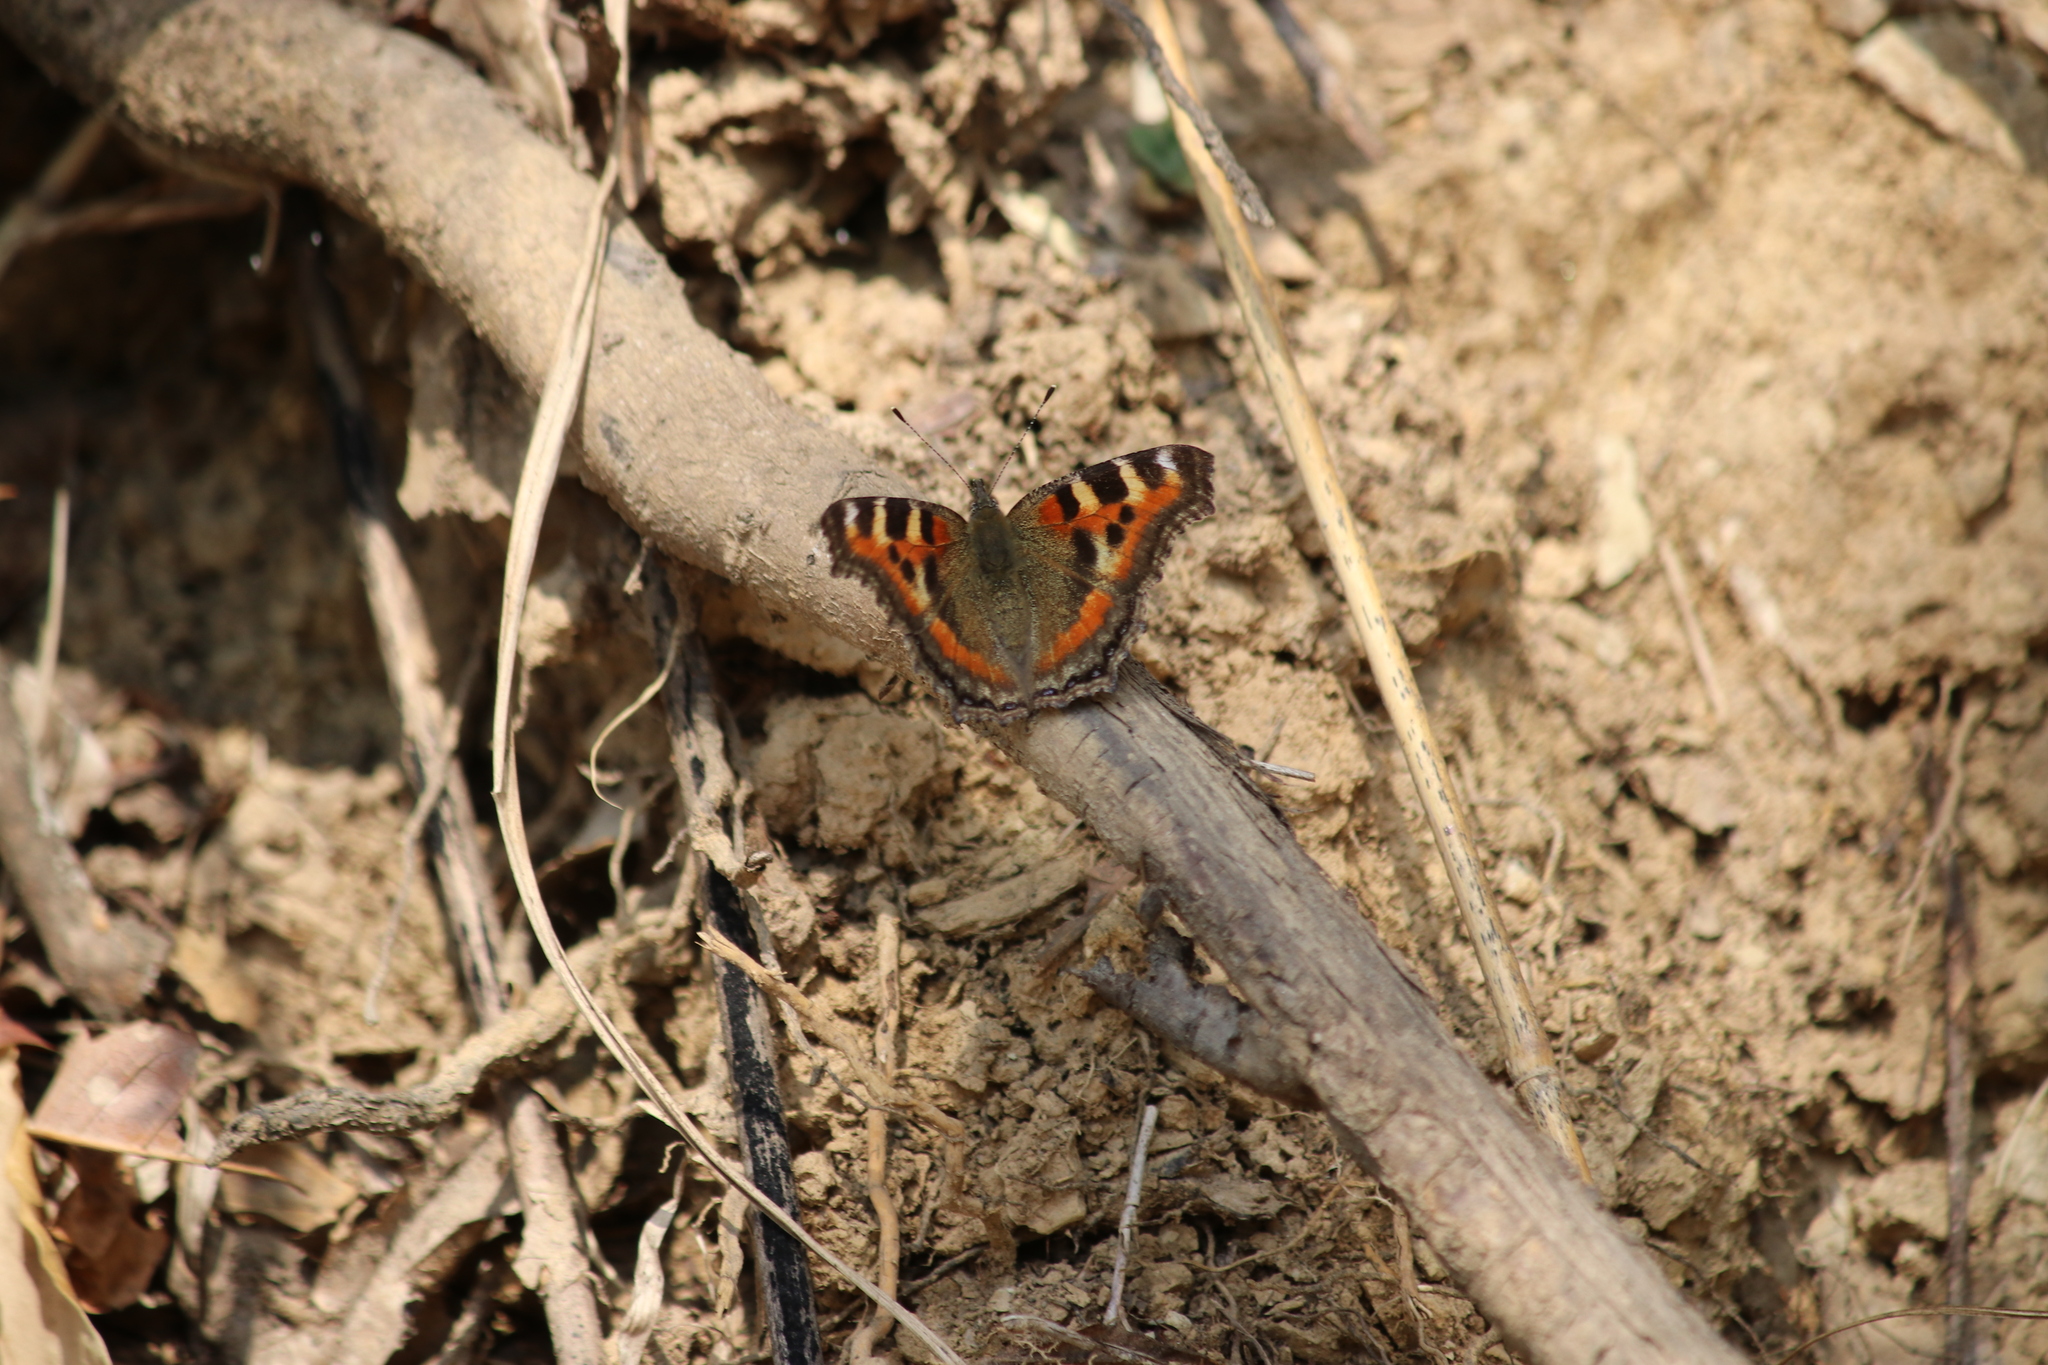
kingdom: Animalia
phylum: Arthropoda
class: Insecta
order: Lepidoptera
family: Nymphalidae
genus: Aglais
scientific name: Aglais caschmirensis
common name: Indian tortoiseshell
